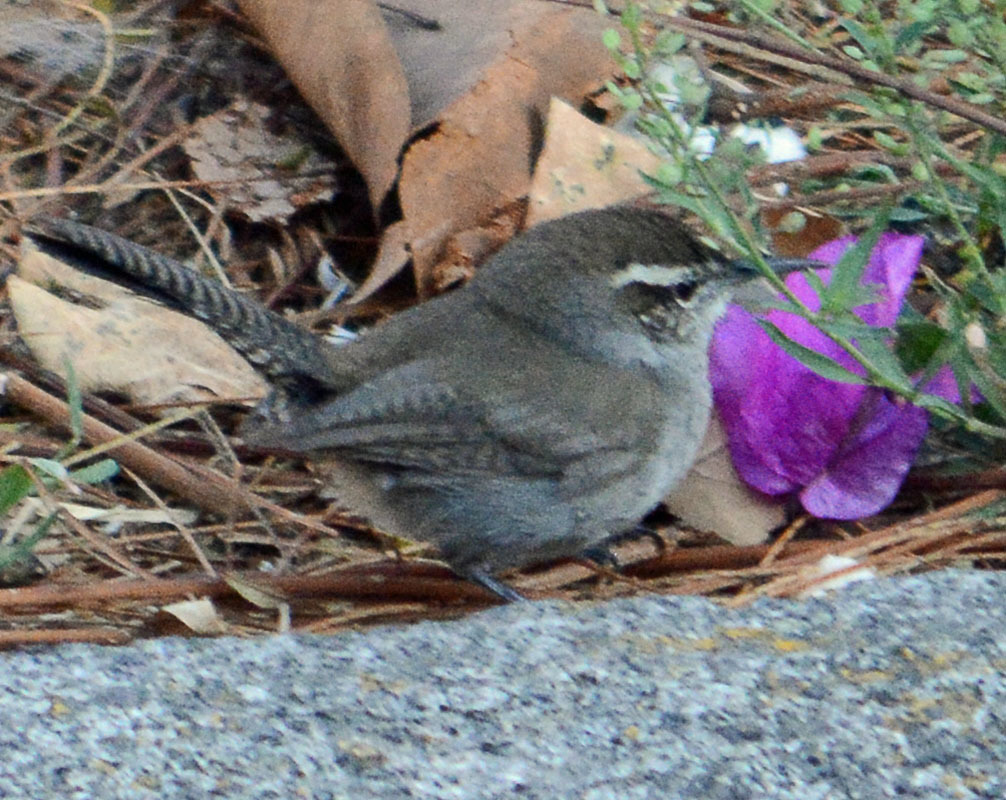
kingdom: Animalia
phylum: Chordata
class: Aves
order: Passeriformes
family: Troglodytidae
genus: Thryomanes
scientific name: Thryomanes bewickii
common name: Bewick's wren
